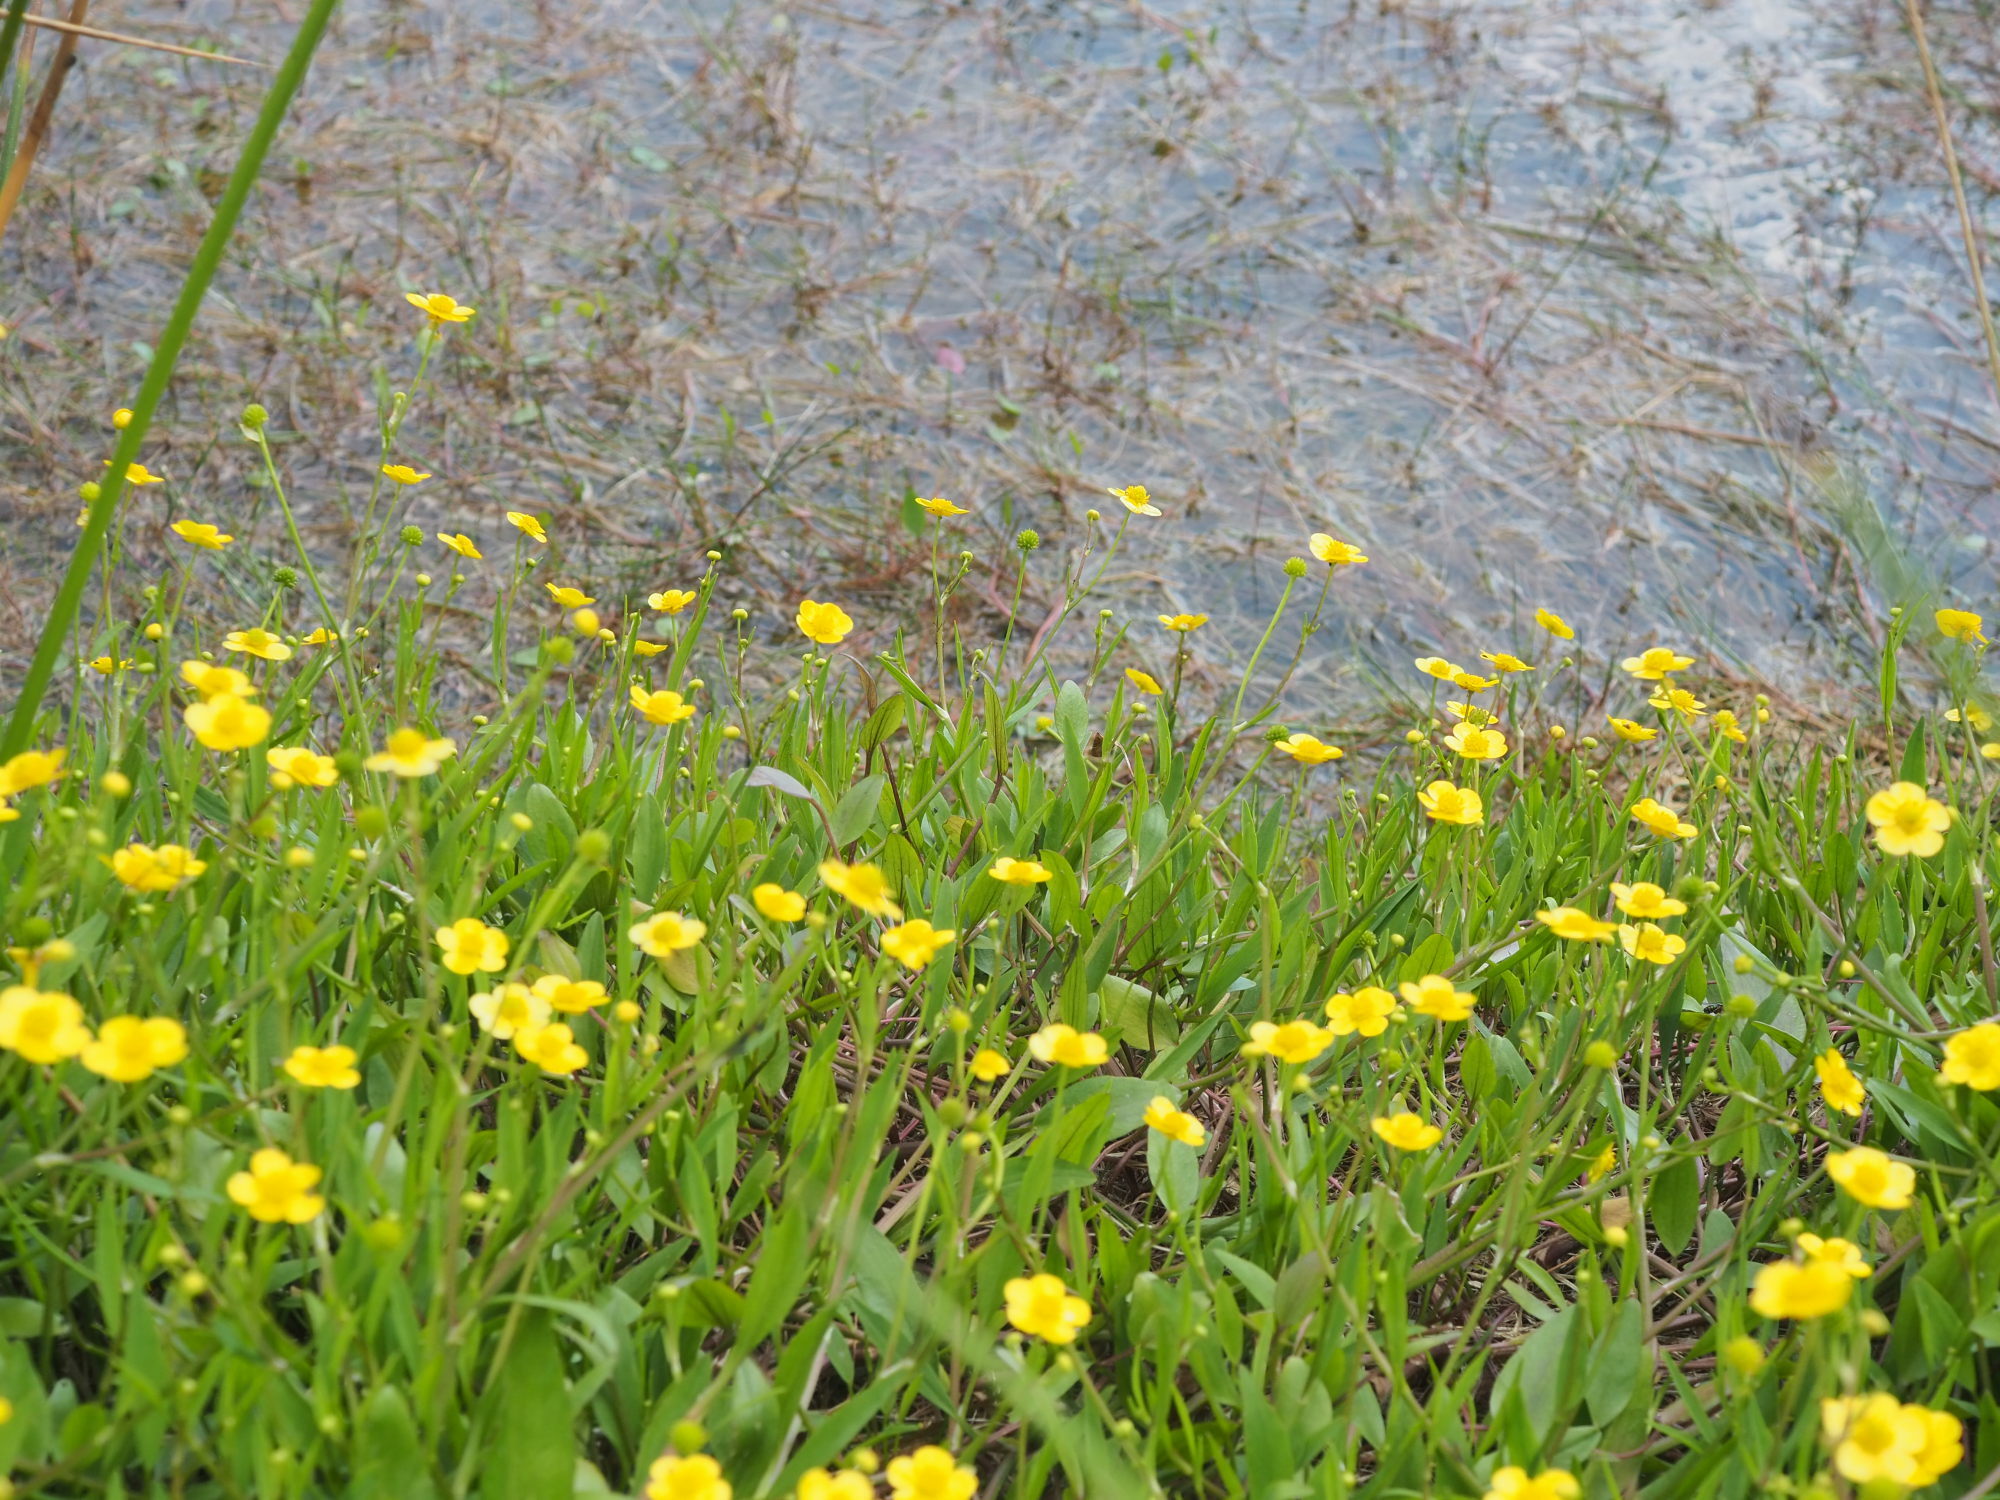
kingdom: Plantae
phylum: Tracheophyta
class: Magnoliopsida
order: Ranunculales
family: Ranunculaceae
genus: Ranunculus
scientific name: Ranunculus flammula
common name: Lesser spearwort
